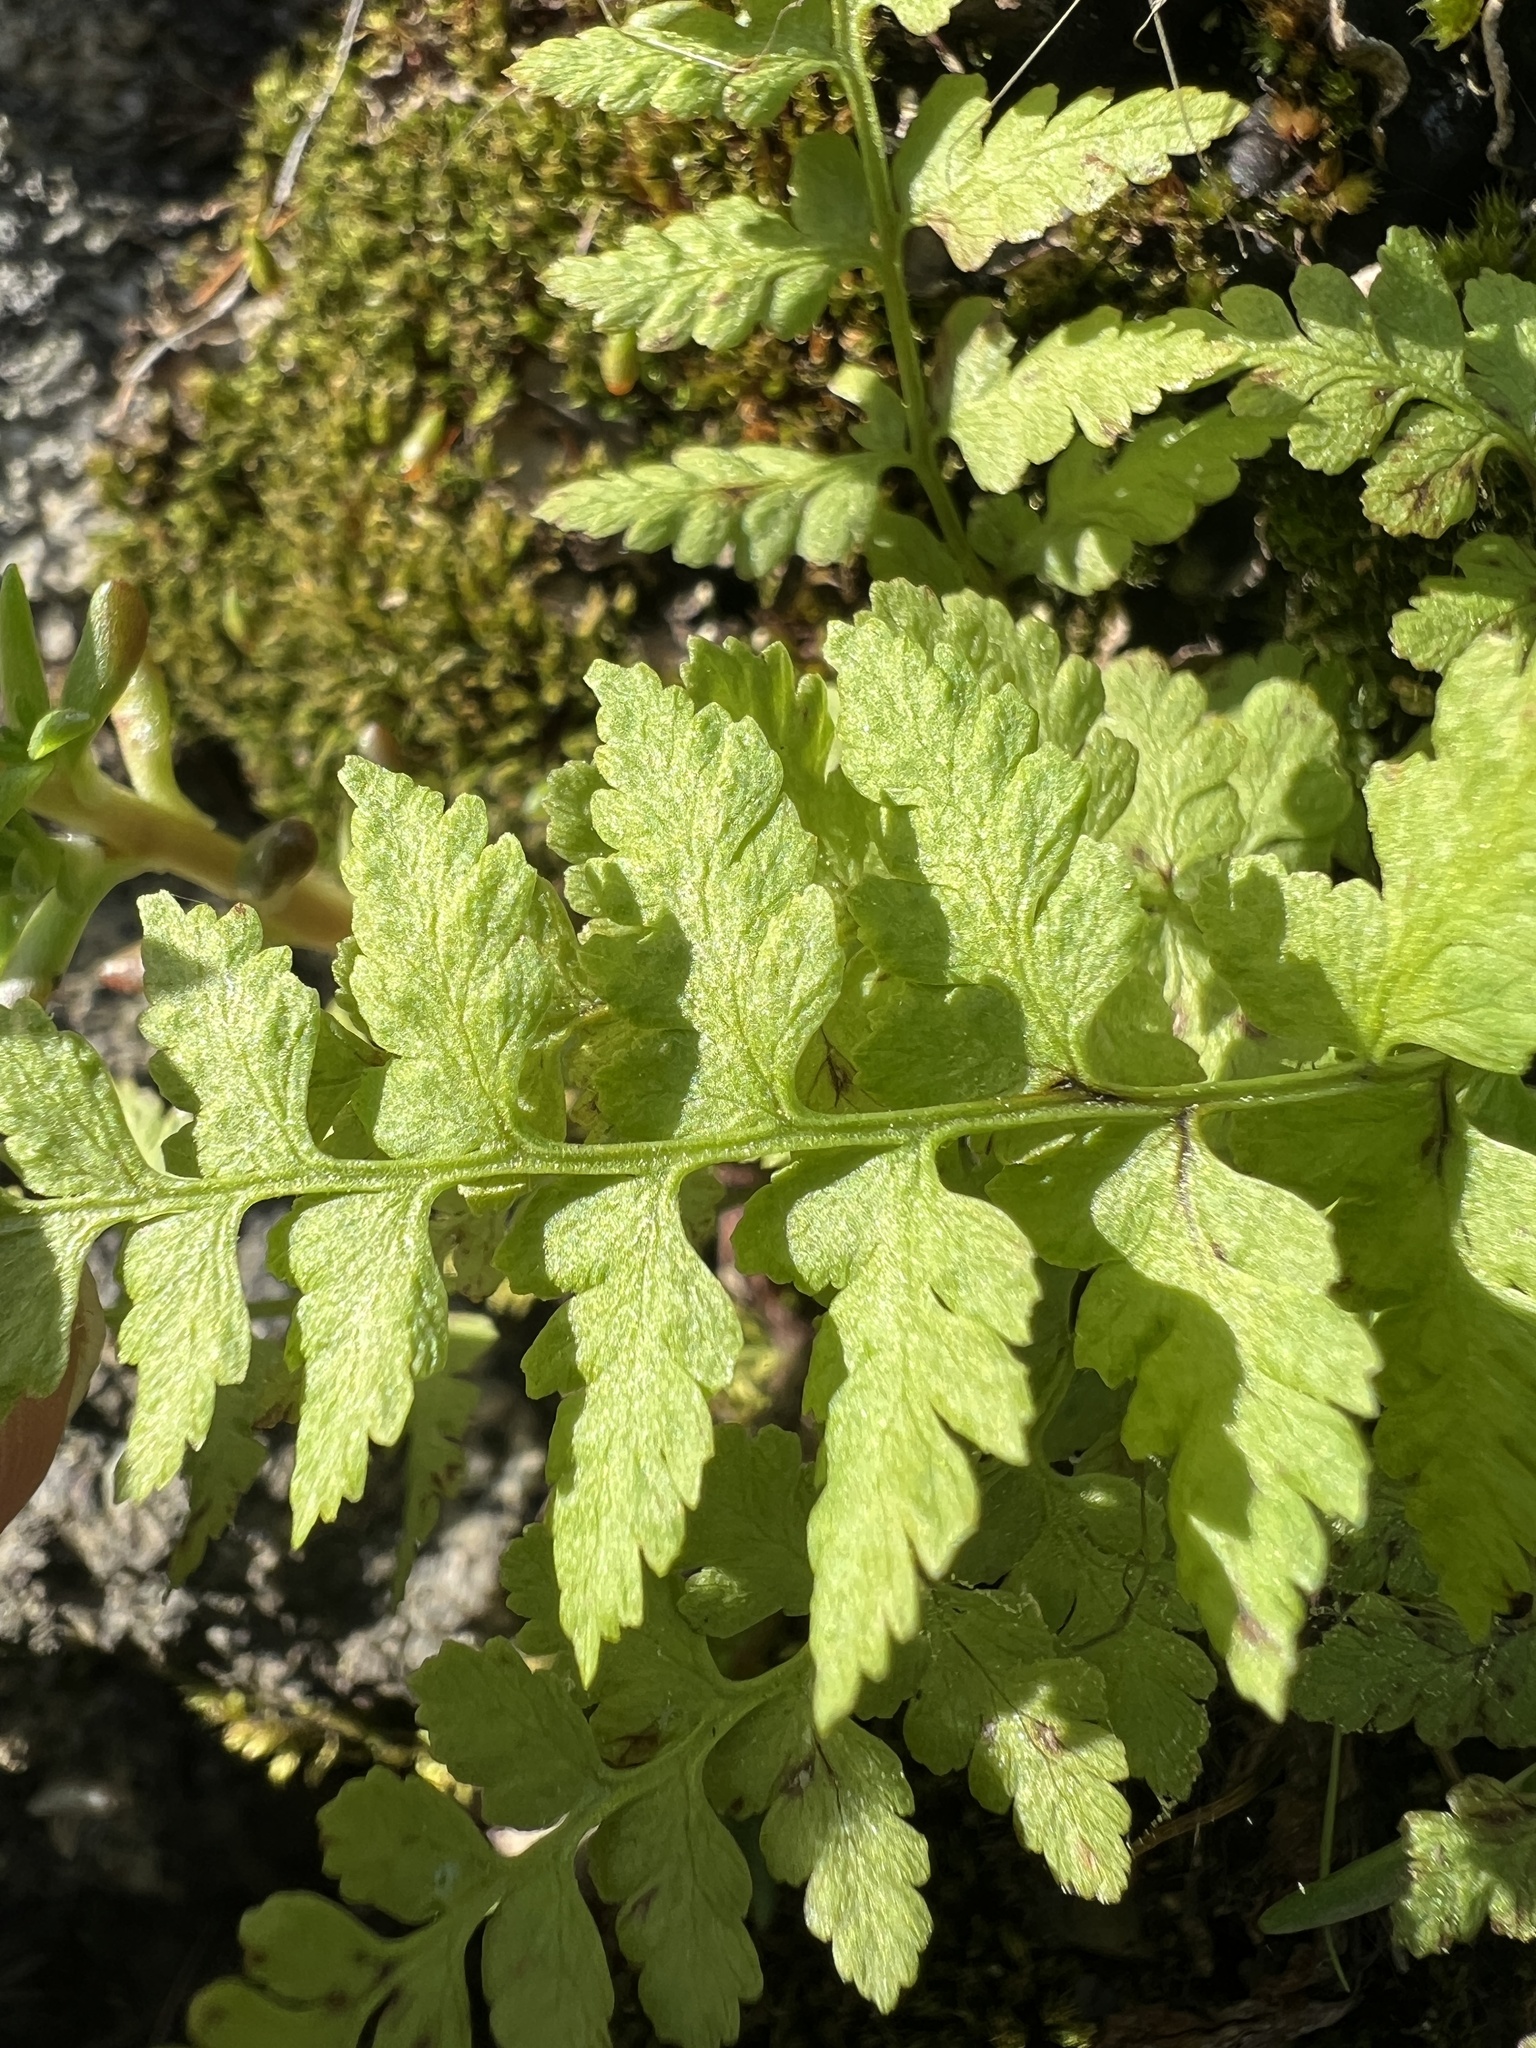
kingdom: Plantae
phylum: Tracheophyta
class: Polypodiopsida
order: Polypodiales
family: Cystopteridaceae
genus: Cystopteris
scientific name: Cystopteris fragilis
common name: Brittle bladder fern
